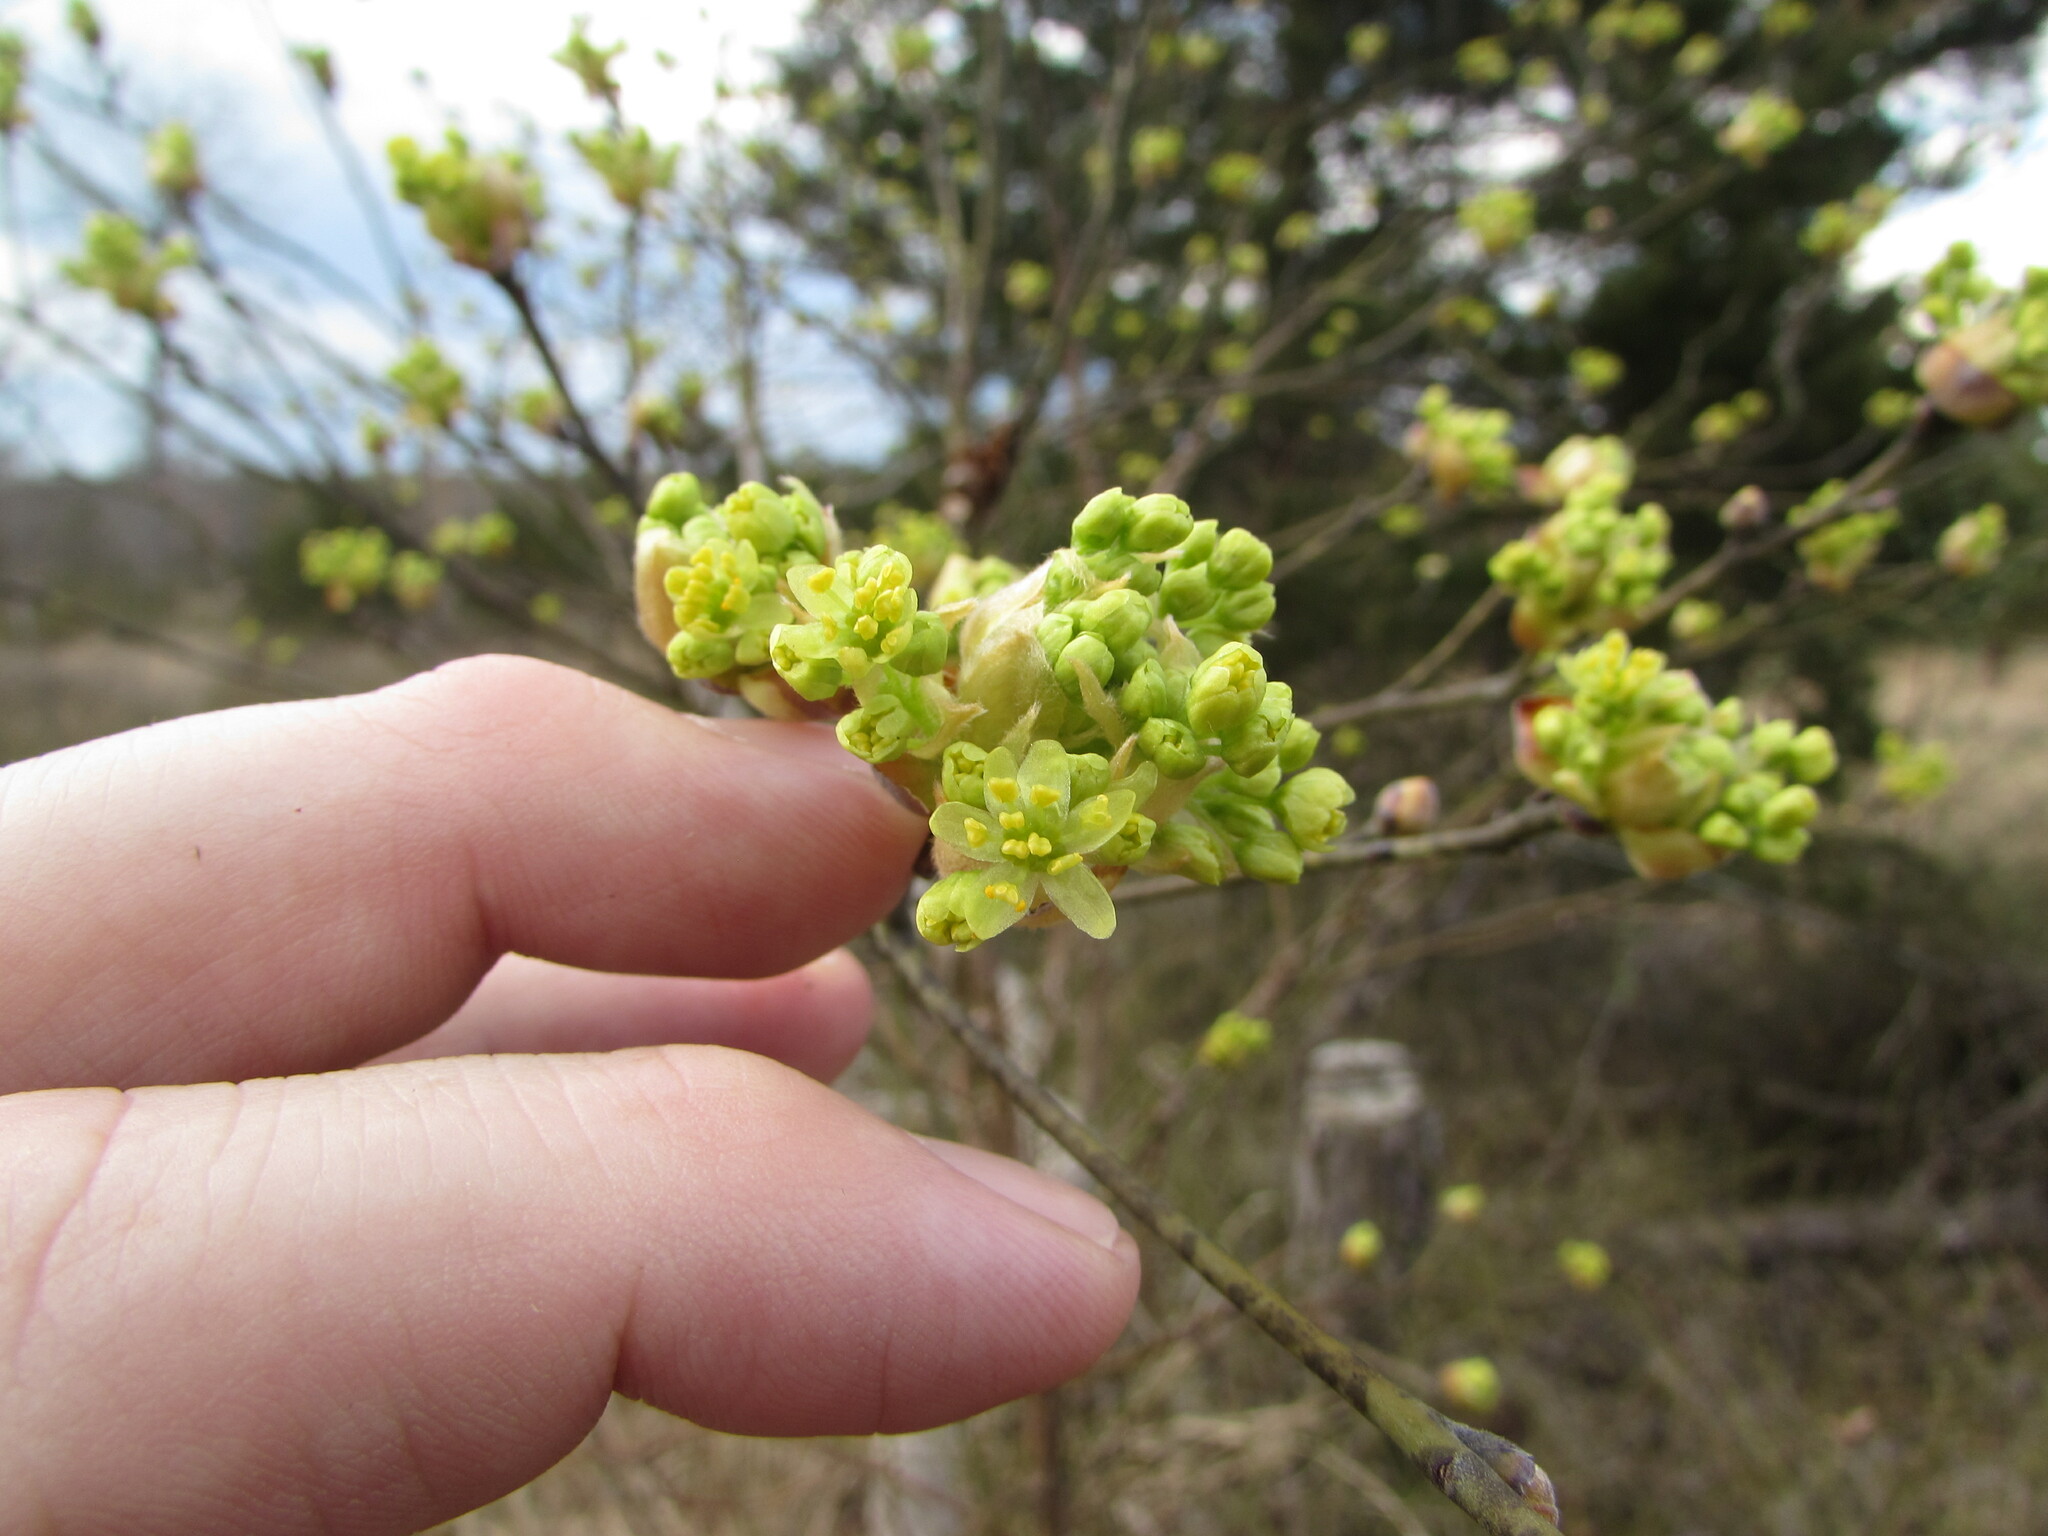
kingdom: Plantae
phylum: Tracheophyta
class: Magnoliopsida
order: Laurales
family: Lauraceae
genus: Lindera
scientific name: Lindera benzoin
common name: Spicebush
